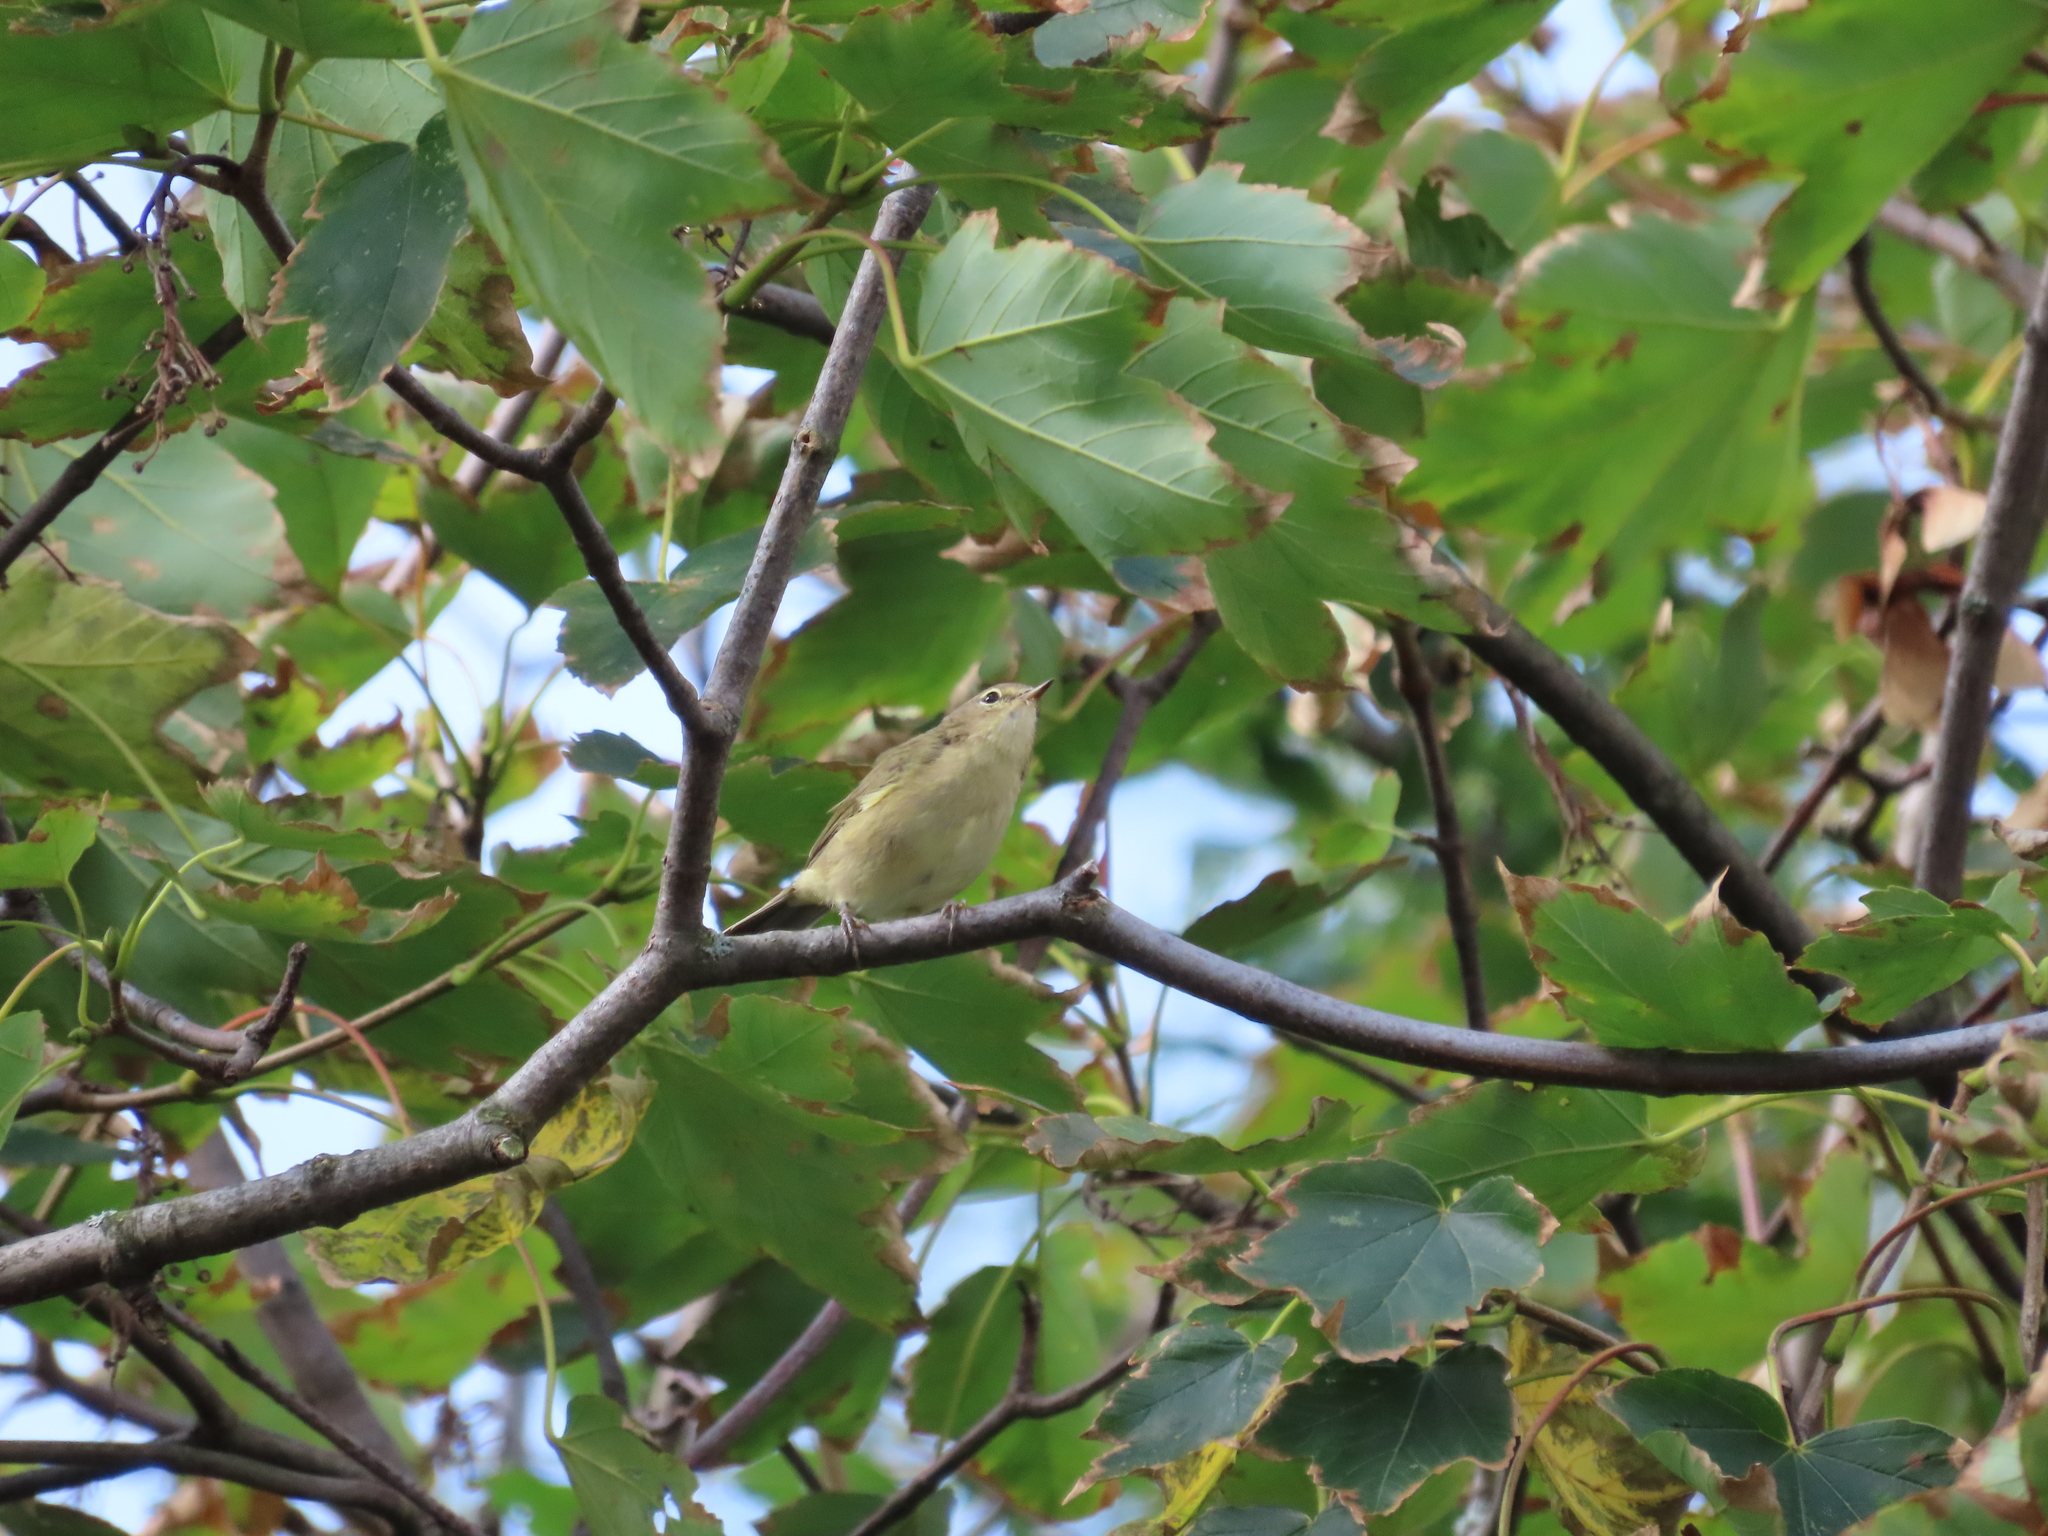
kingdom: Animalia
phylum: Chordata
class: Aves
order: Passeriformes
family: Phylloscopidae
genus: Phylloscopus
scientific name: Phylloscopus collybita
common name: Common chiffchaff
